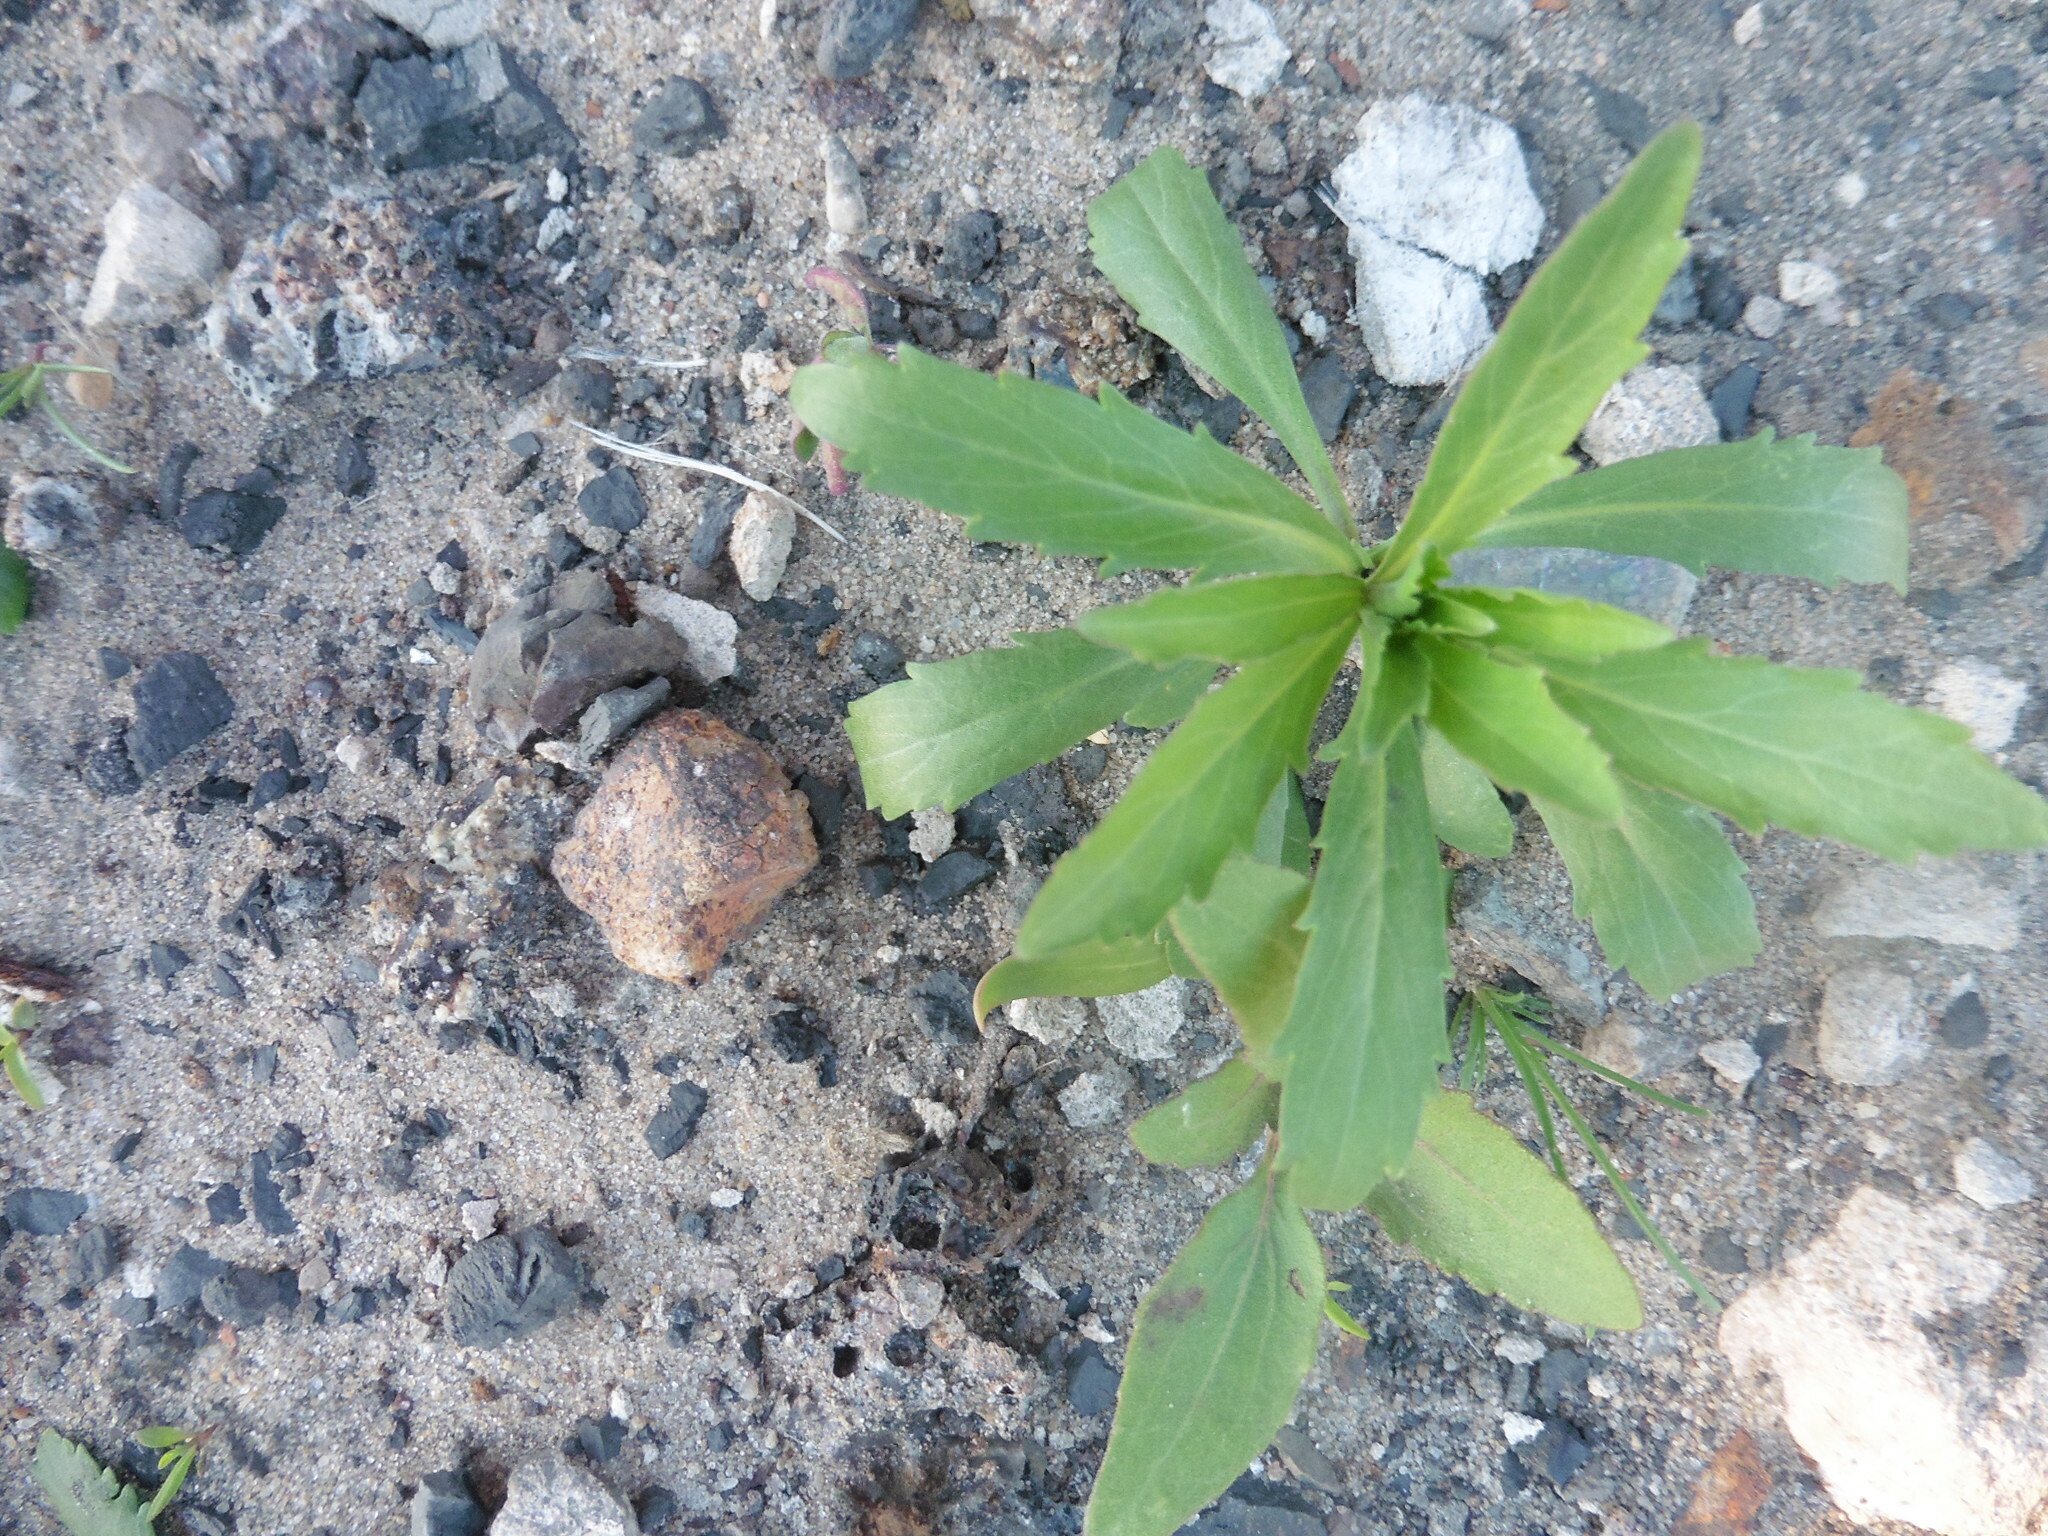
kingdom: Plantae
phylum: Tracheophyta
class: Magnoliopsida
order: Brassicales
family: Brassicaceae
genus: Lepidium
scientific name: Lepidium densiflorum
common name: Miner's pepperwort
